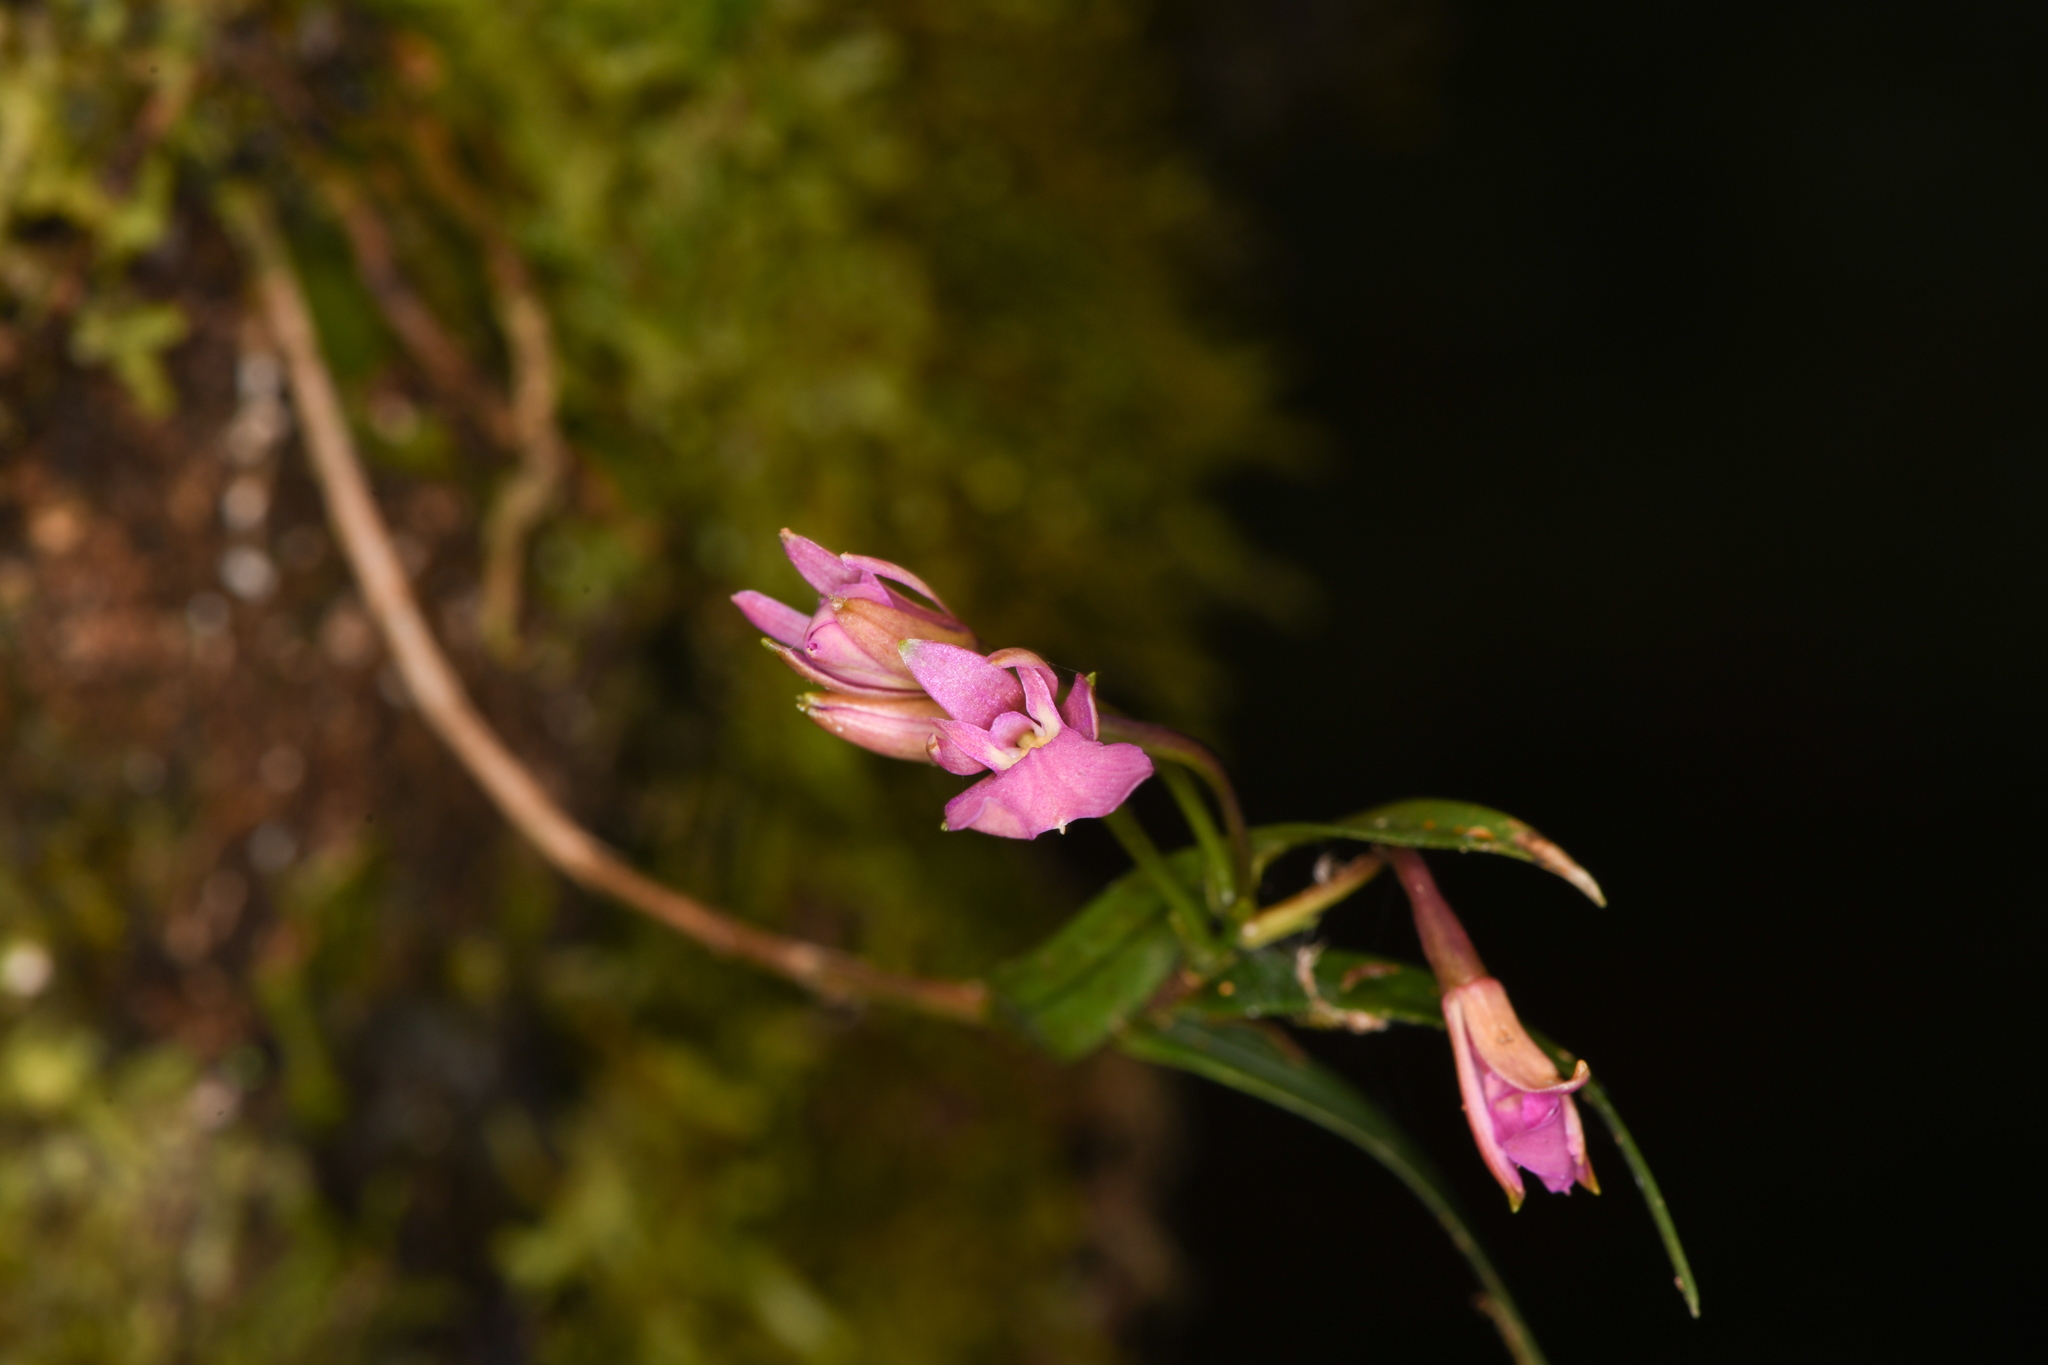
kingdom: Plantae
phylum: Tracheophyta
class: Liliopsida
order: Asparagales
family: Orchidaceae
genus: Epidendrum
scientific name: Epidendrum centropetalum
